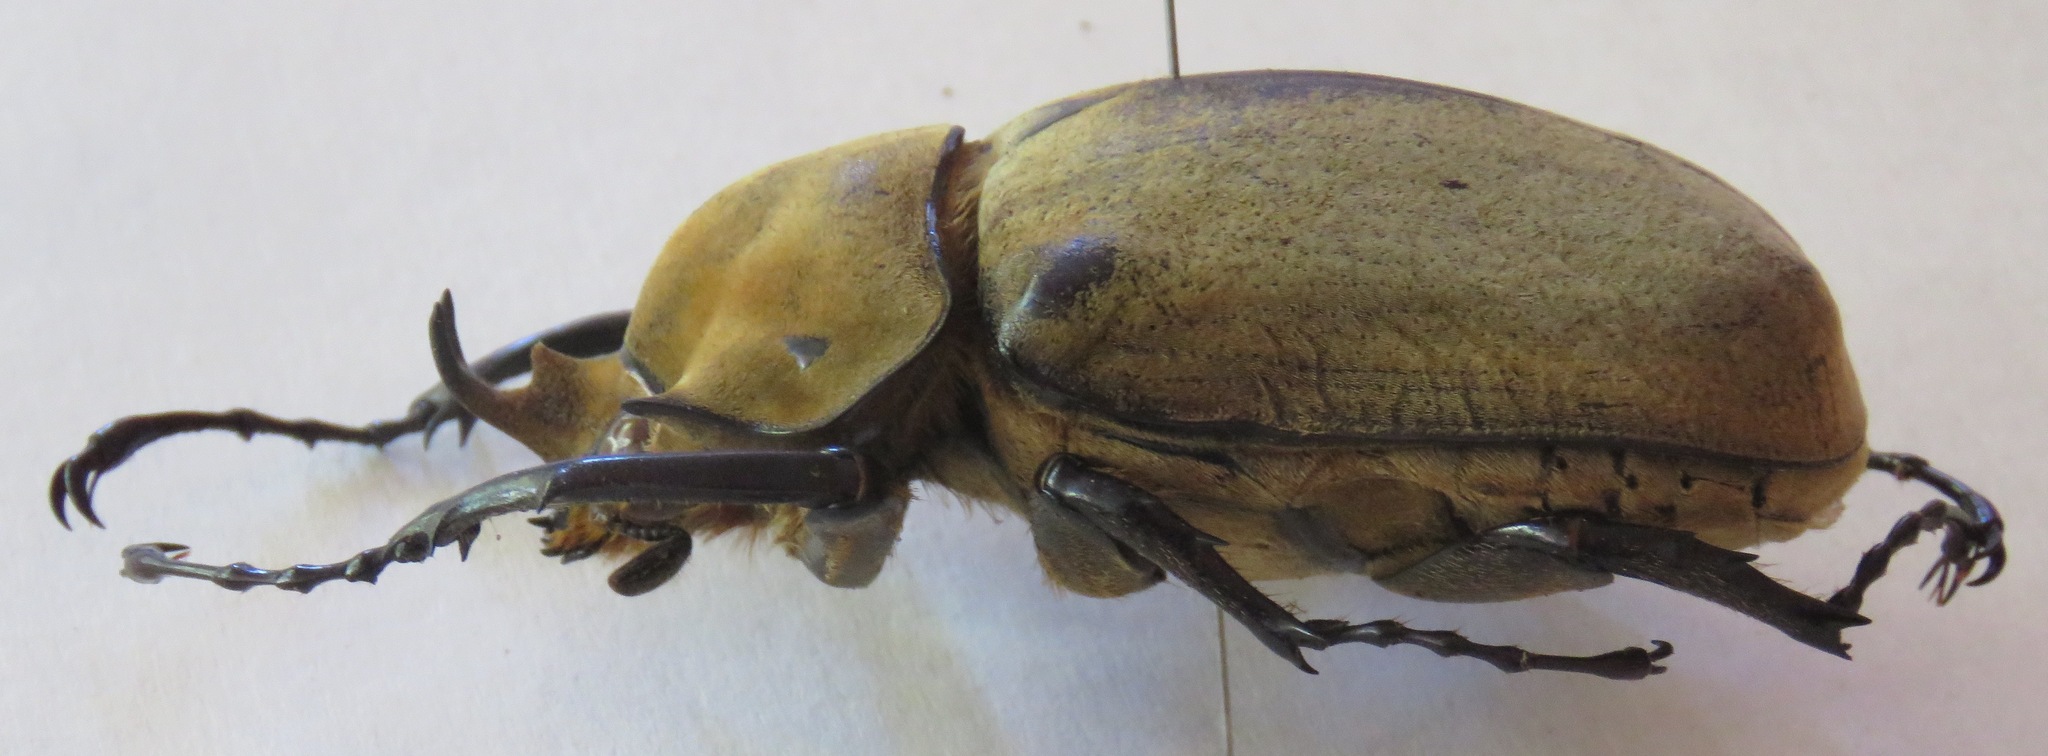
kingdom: Animalia
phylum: Arthropoda
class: Insecta
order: Coleoptera
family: Scarabaeidae
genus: Megasoma
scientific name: Megasoma elephas
